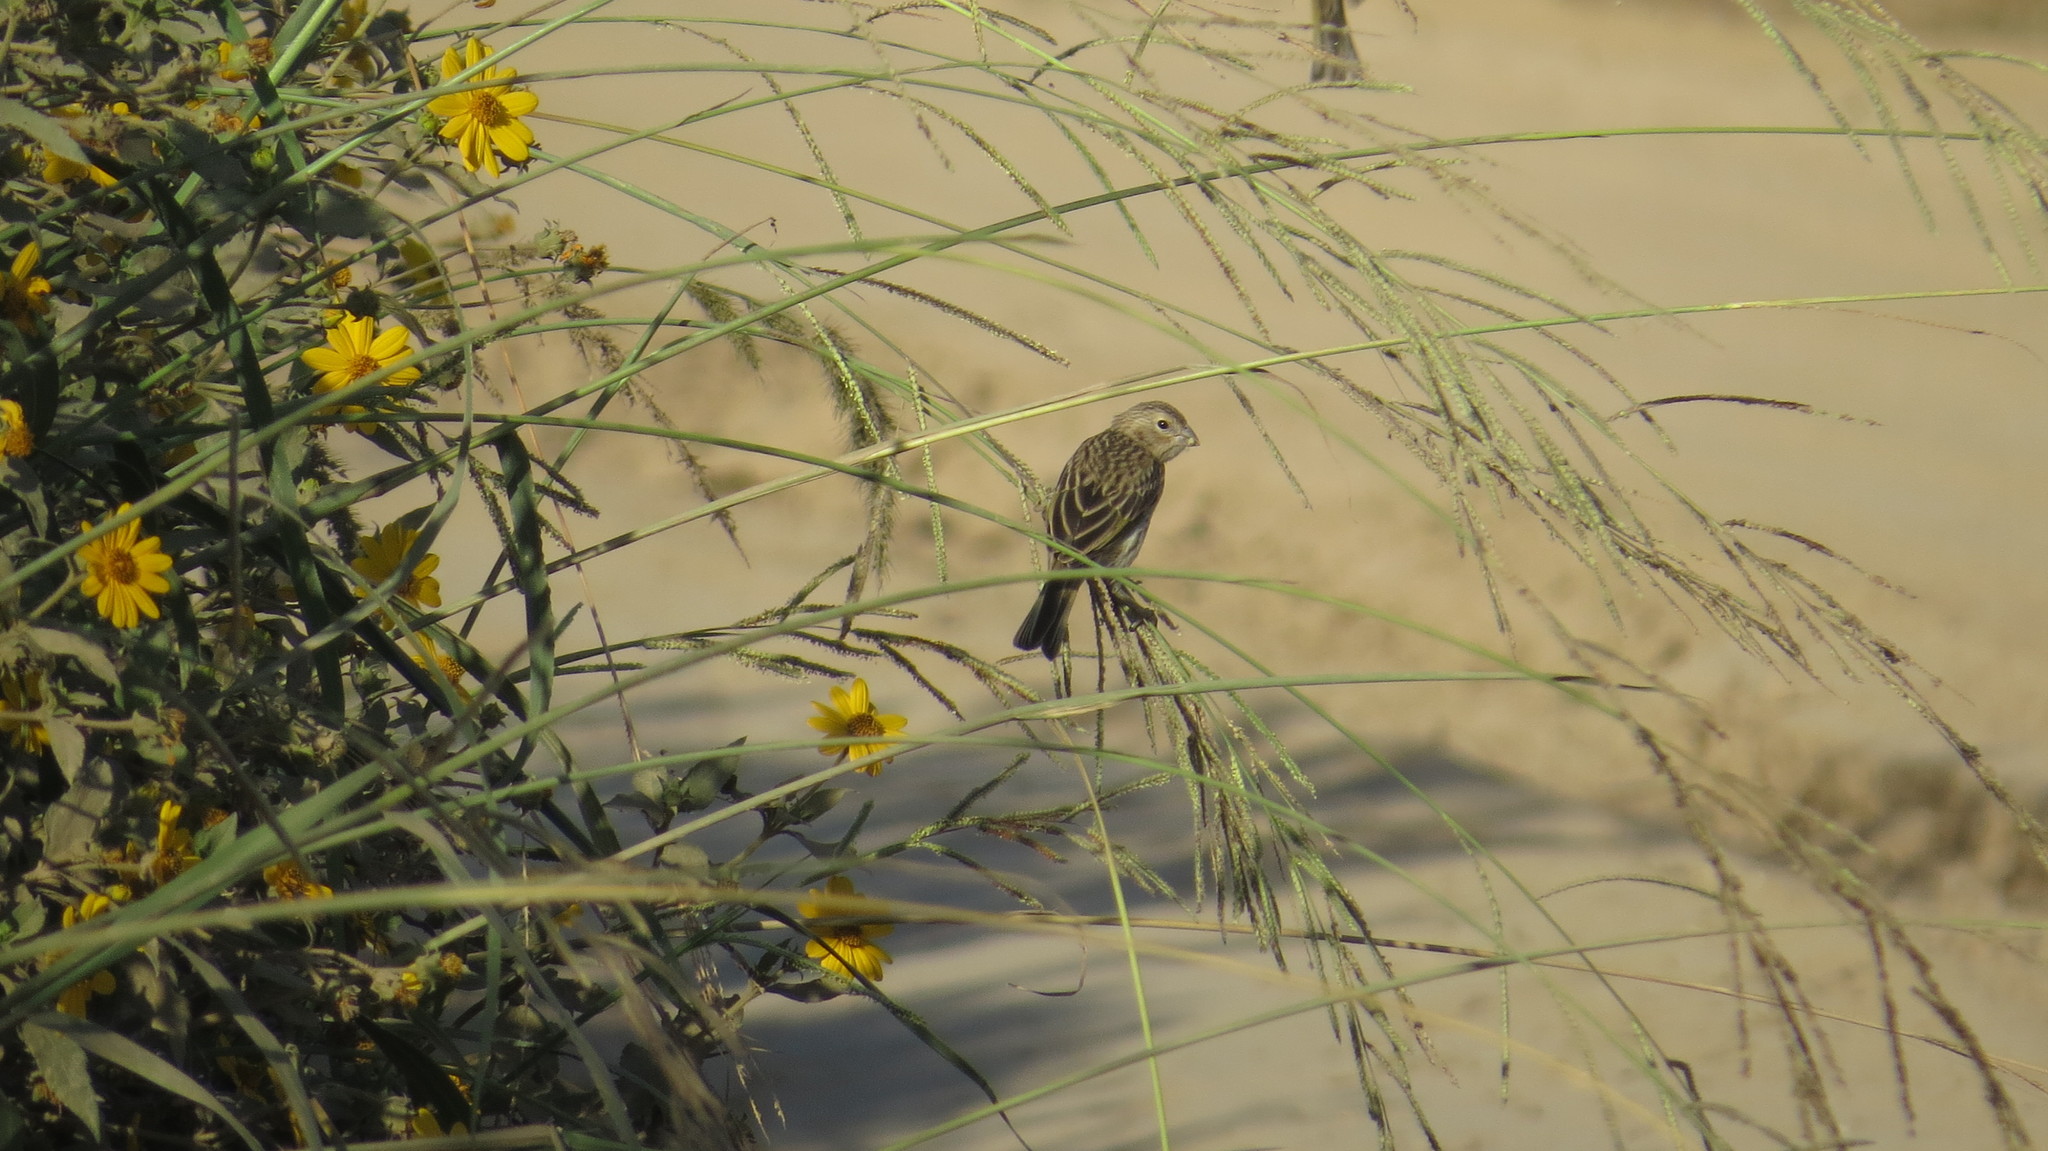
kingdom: Animalia
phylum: Chordata
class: Aves
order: Passeriformes
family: Thraupidae
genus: Sicalis
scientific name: Sicalis flaveola
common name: Saffron finch
